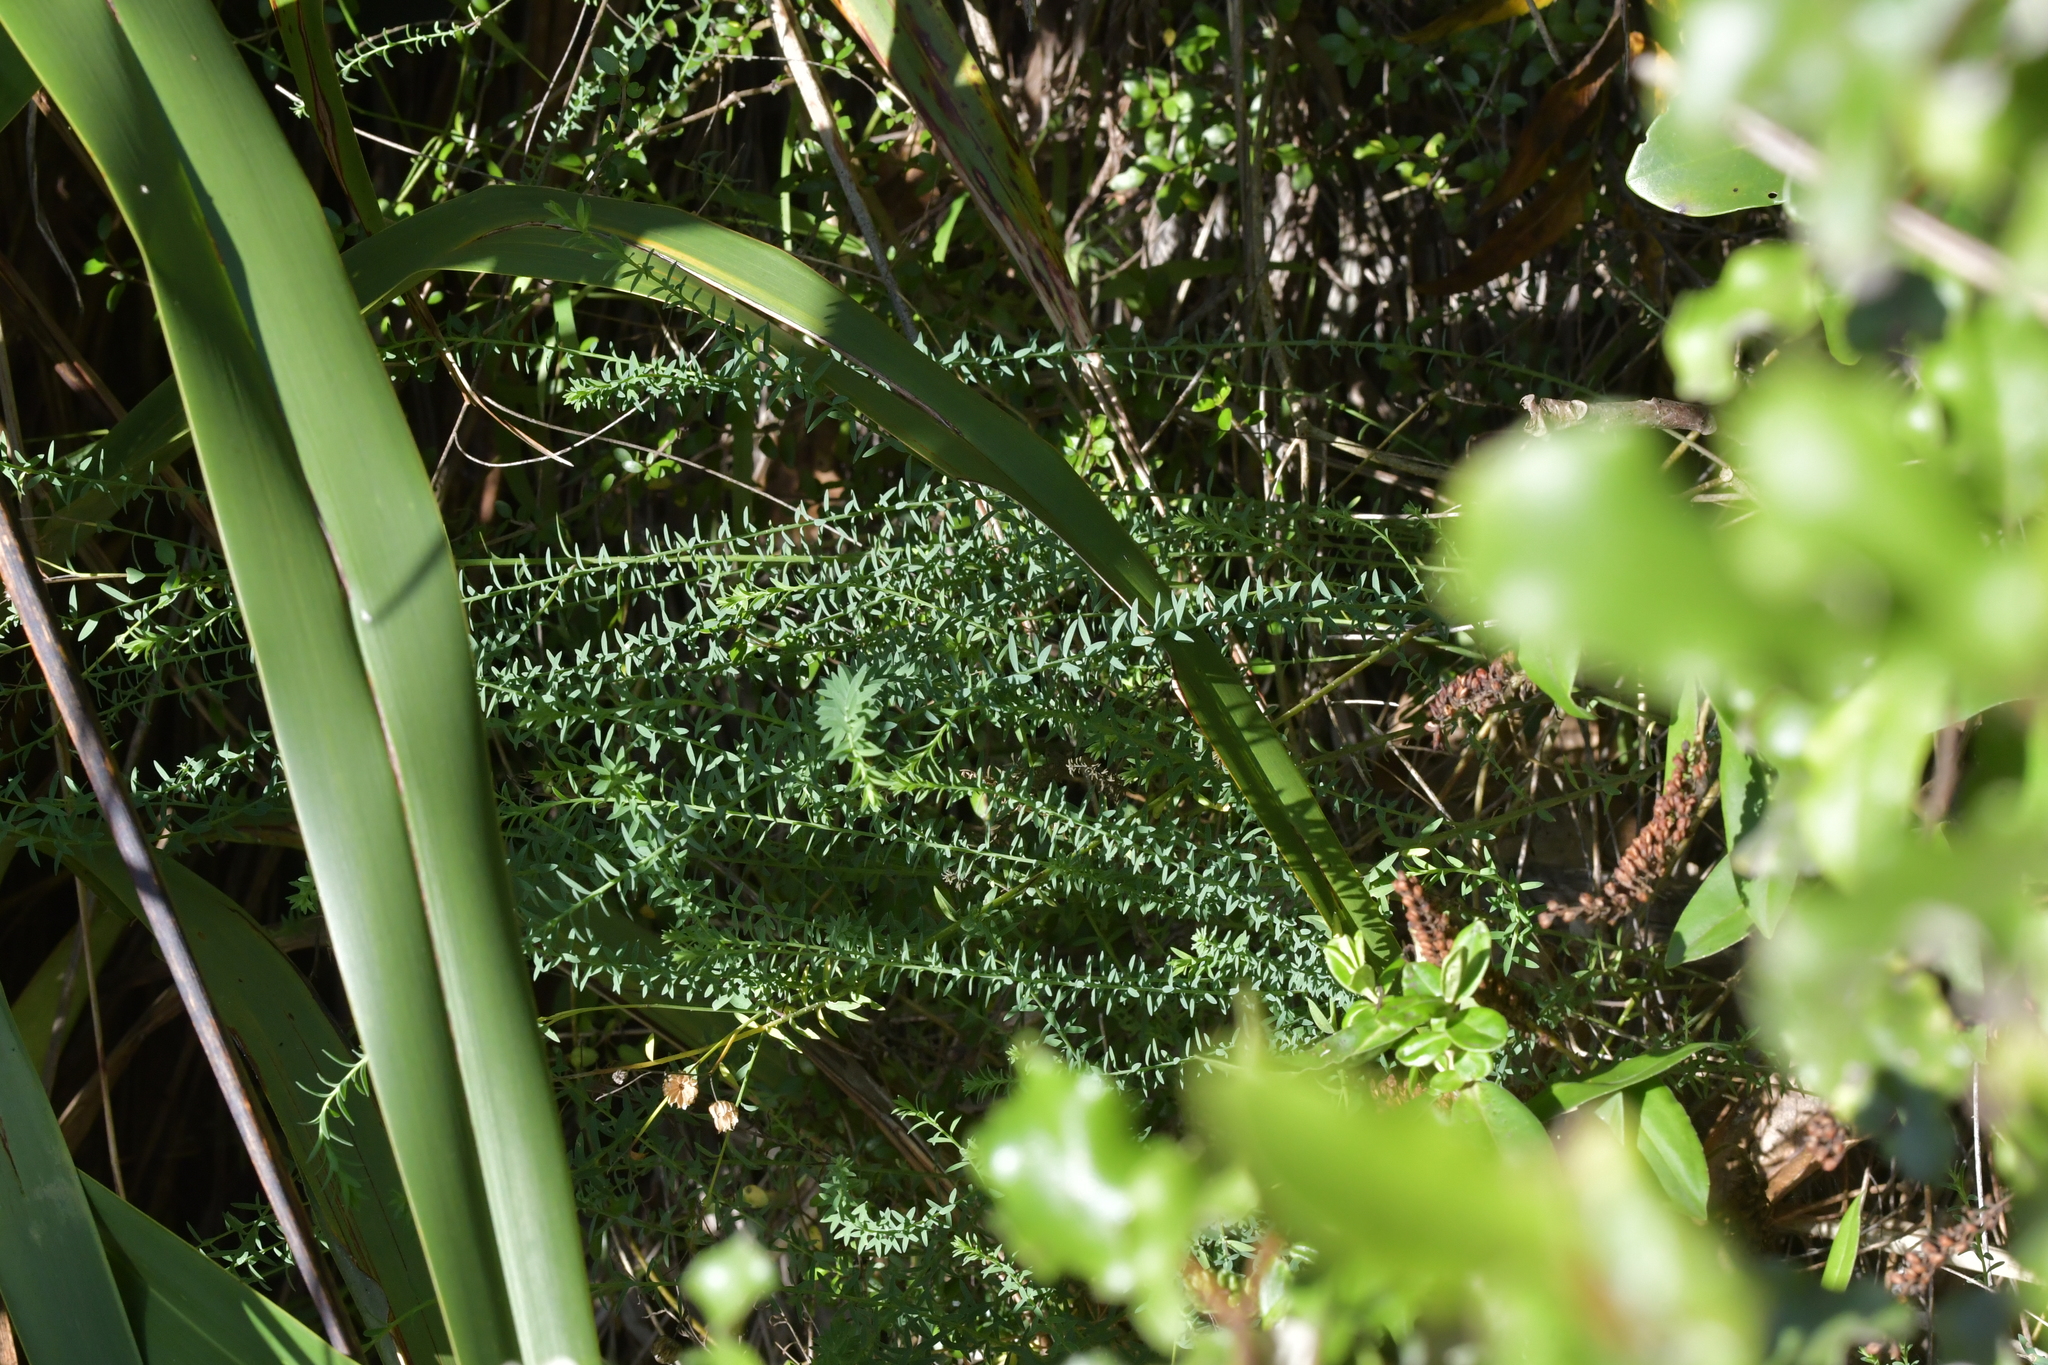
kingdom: Plantae
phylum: Tracheophyta
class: Magnoliopsida
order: Malpighiales
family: Linaceae
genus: Linum
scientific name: Linum monogynum
